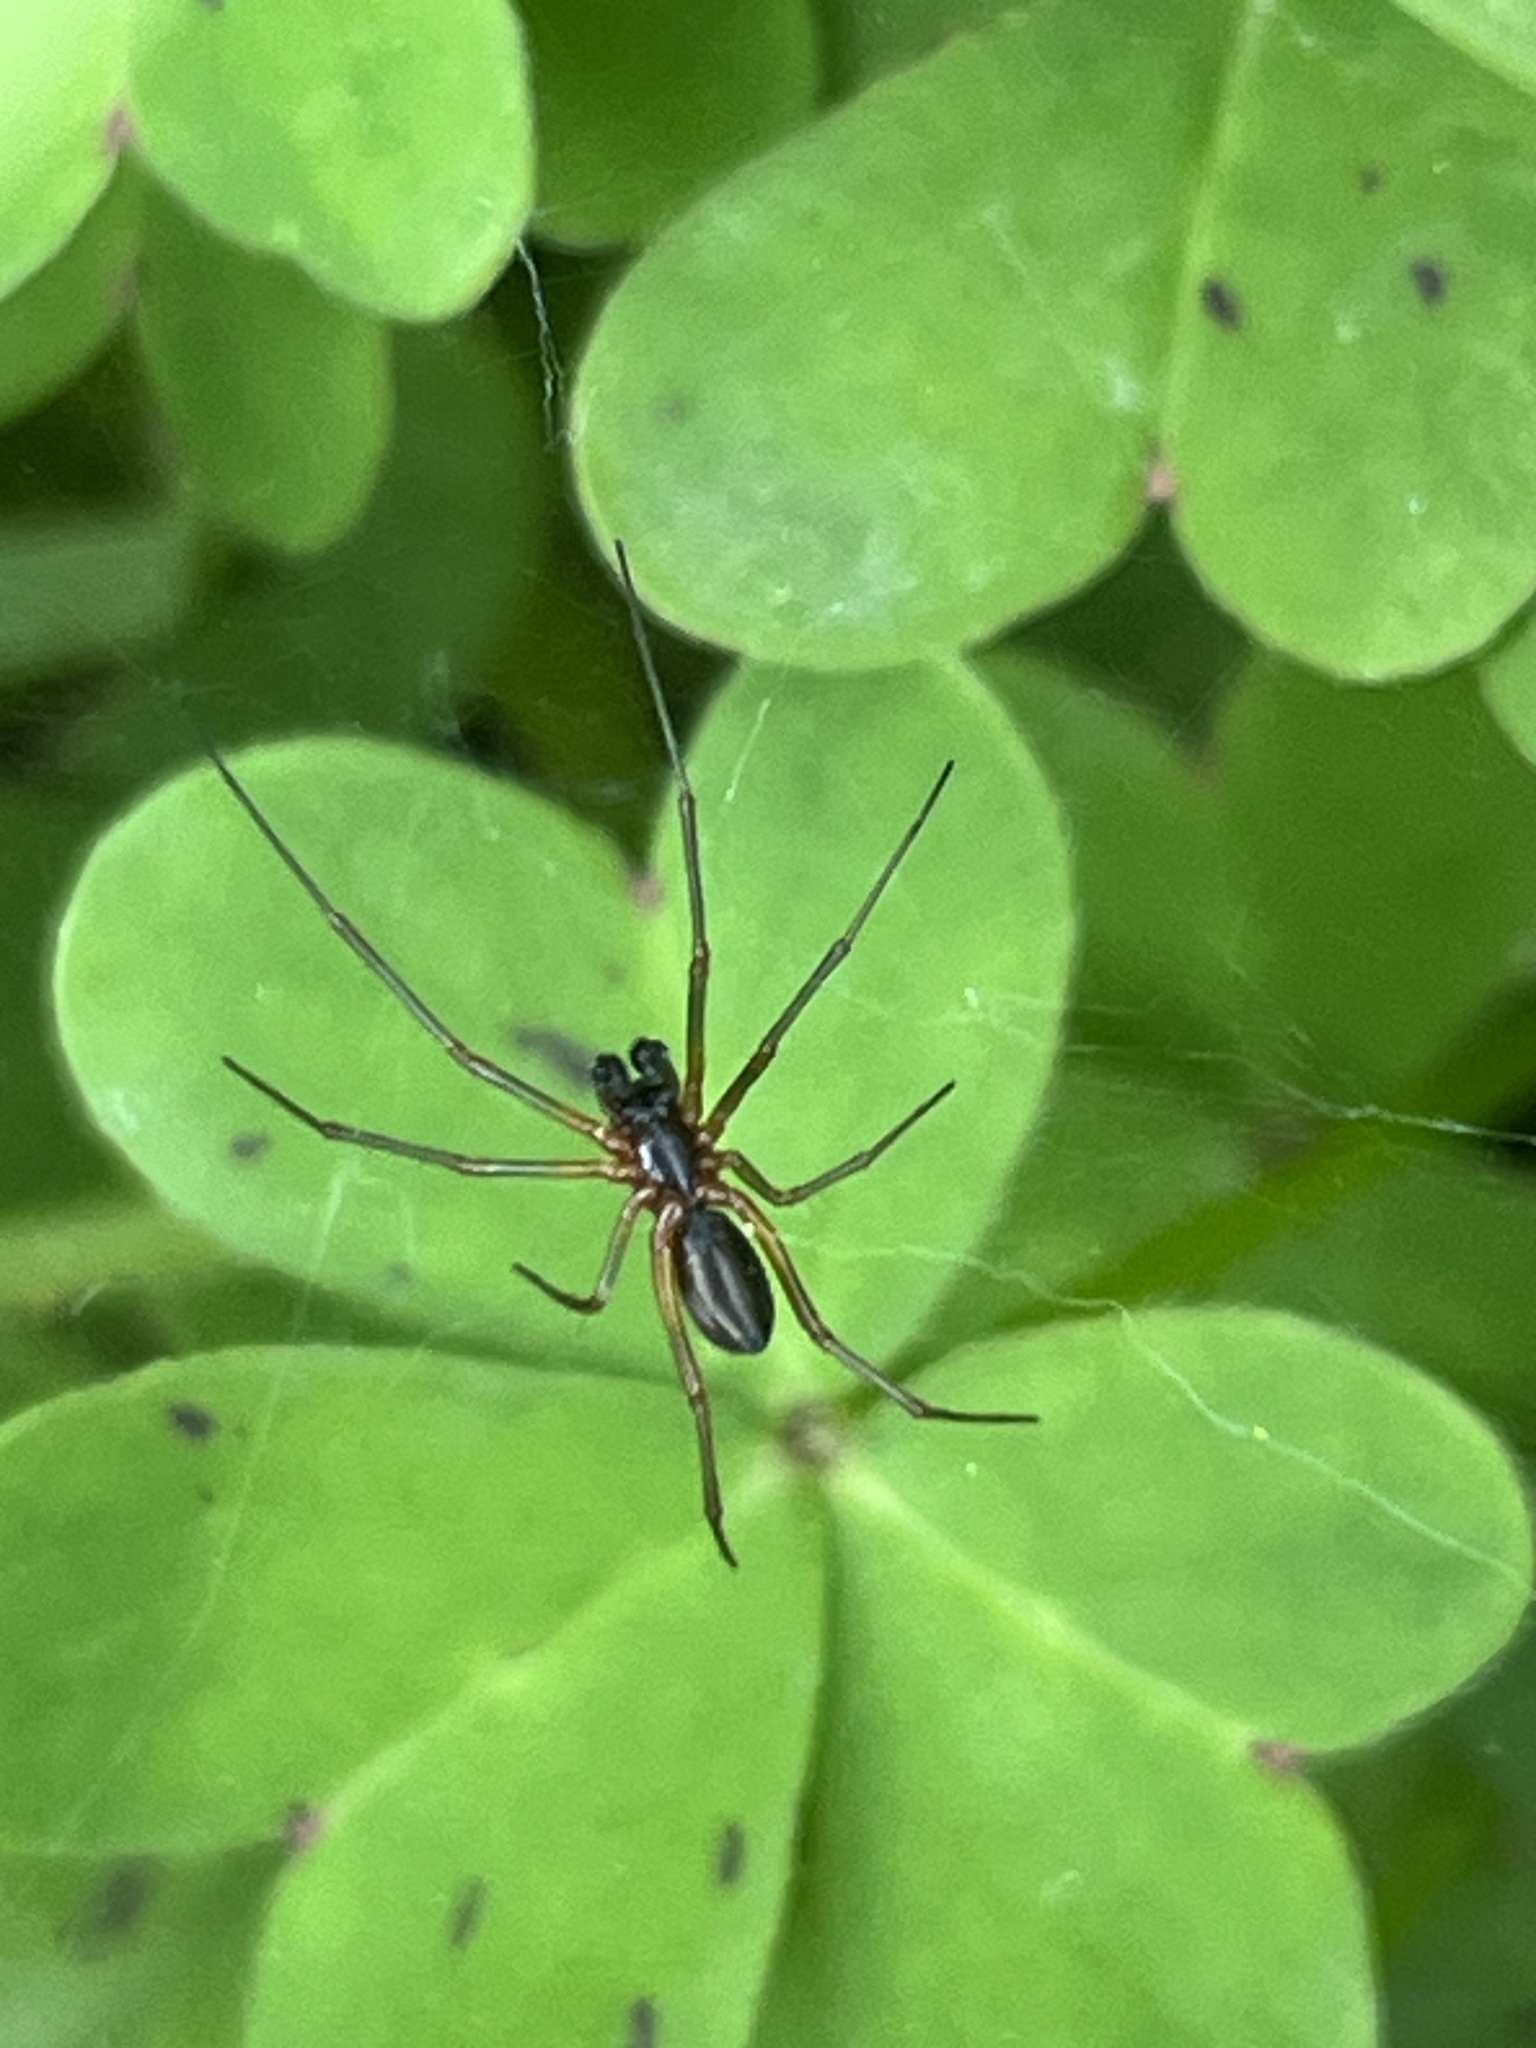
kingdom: Animalia
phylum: Arthropoda
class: Arachnida
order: Araneae
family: Linyphiidae
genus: Frontinellina
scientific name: Frontinellina frutetorum
